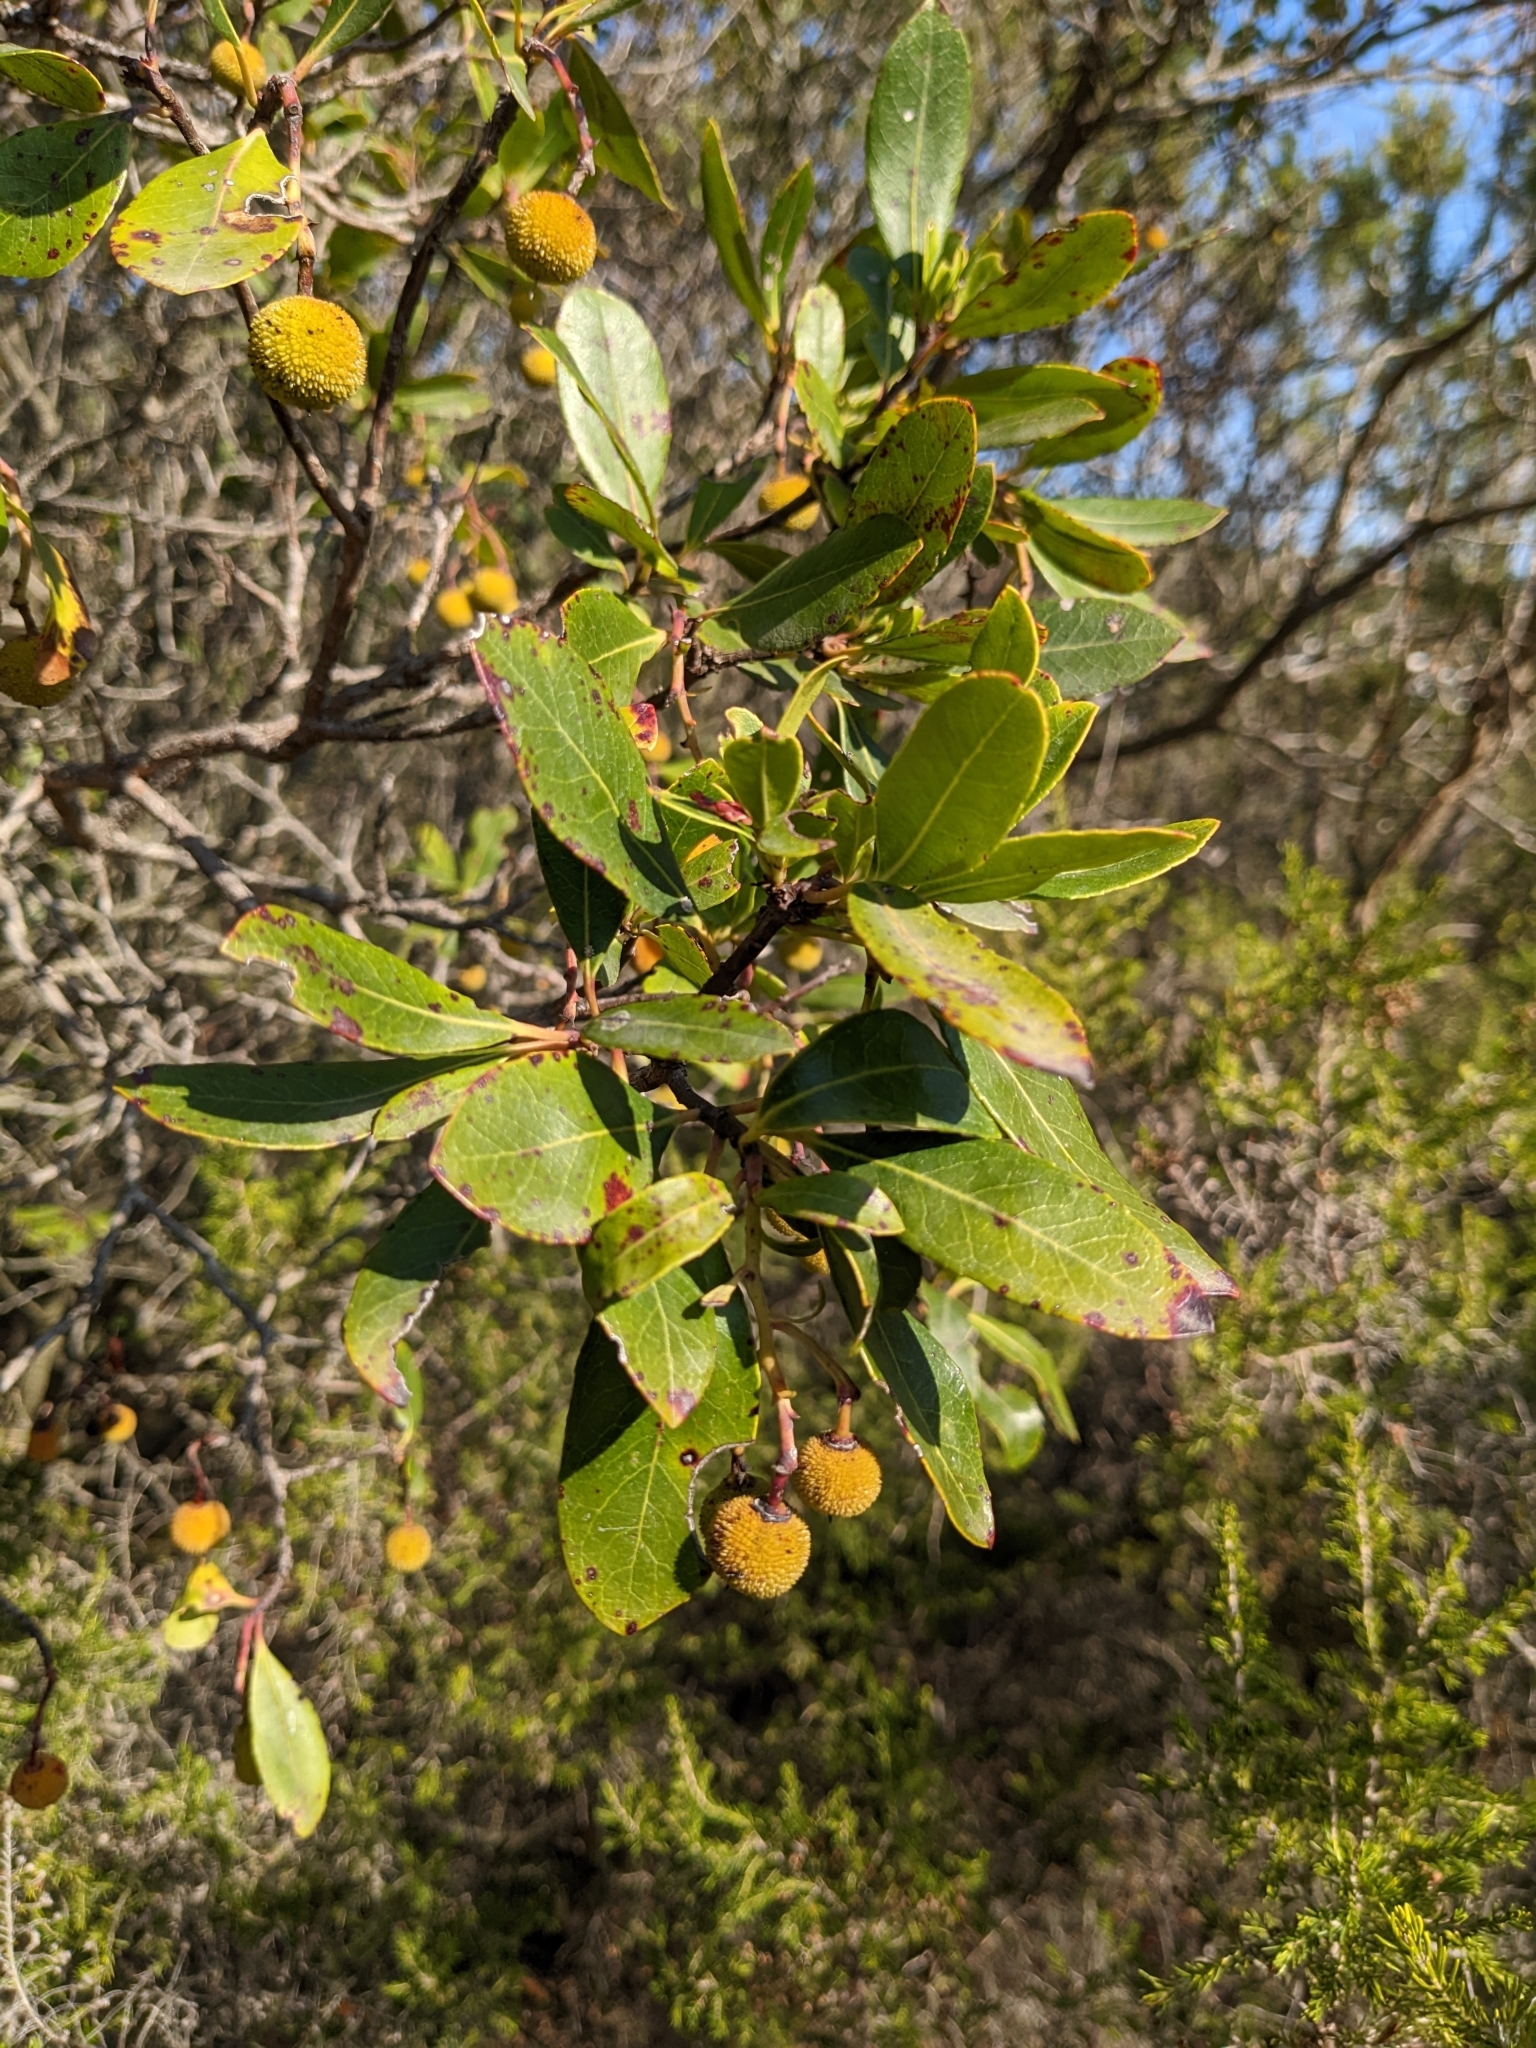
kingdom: Plantae
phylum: Tracheophyta
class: Magnoliopsida
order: Ericales
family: Ericaceae
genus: Arbutus
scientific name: Arbutus unedo
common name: Strawberry-tree
